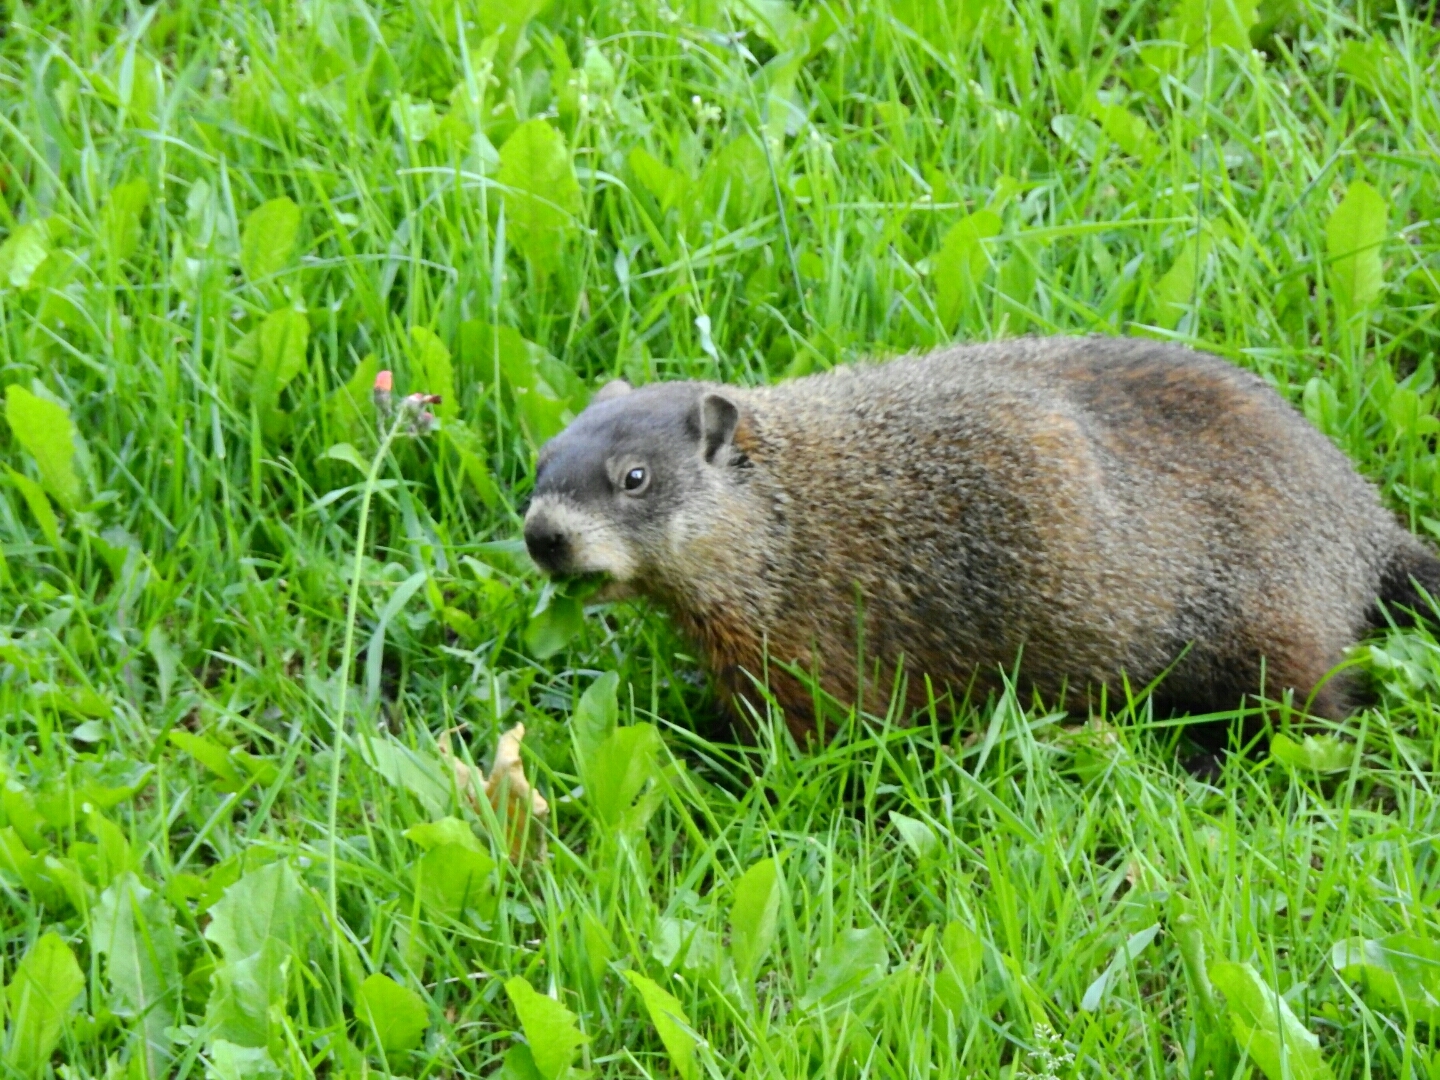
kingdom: Animalia
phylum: Chordata
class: Mammalia
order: Rodentia
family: Sciuridae
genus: Marmota
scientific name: Marmota monax
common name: Groundhog
